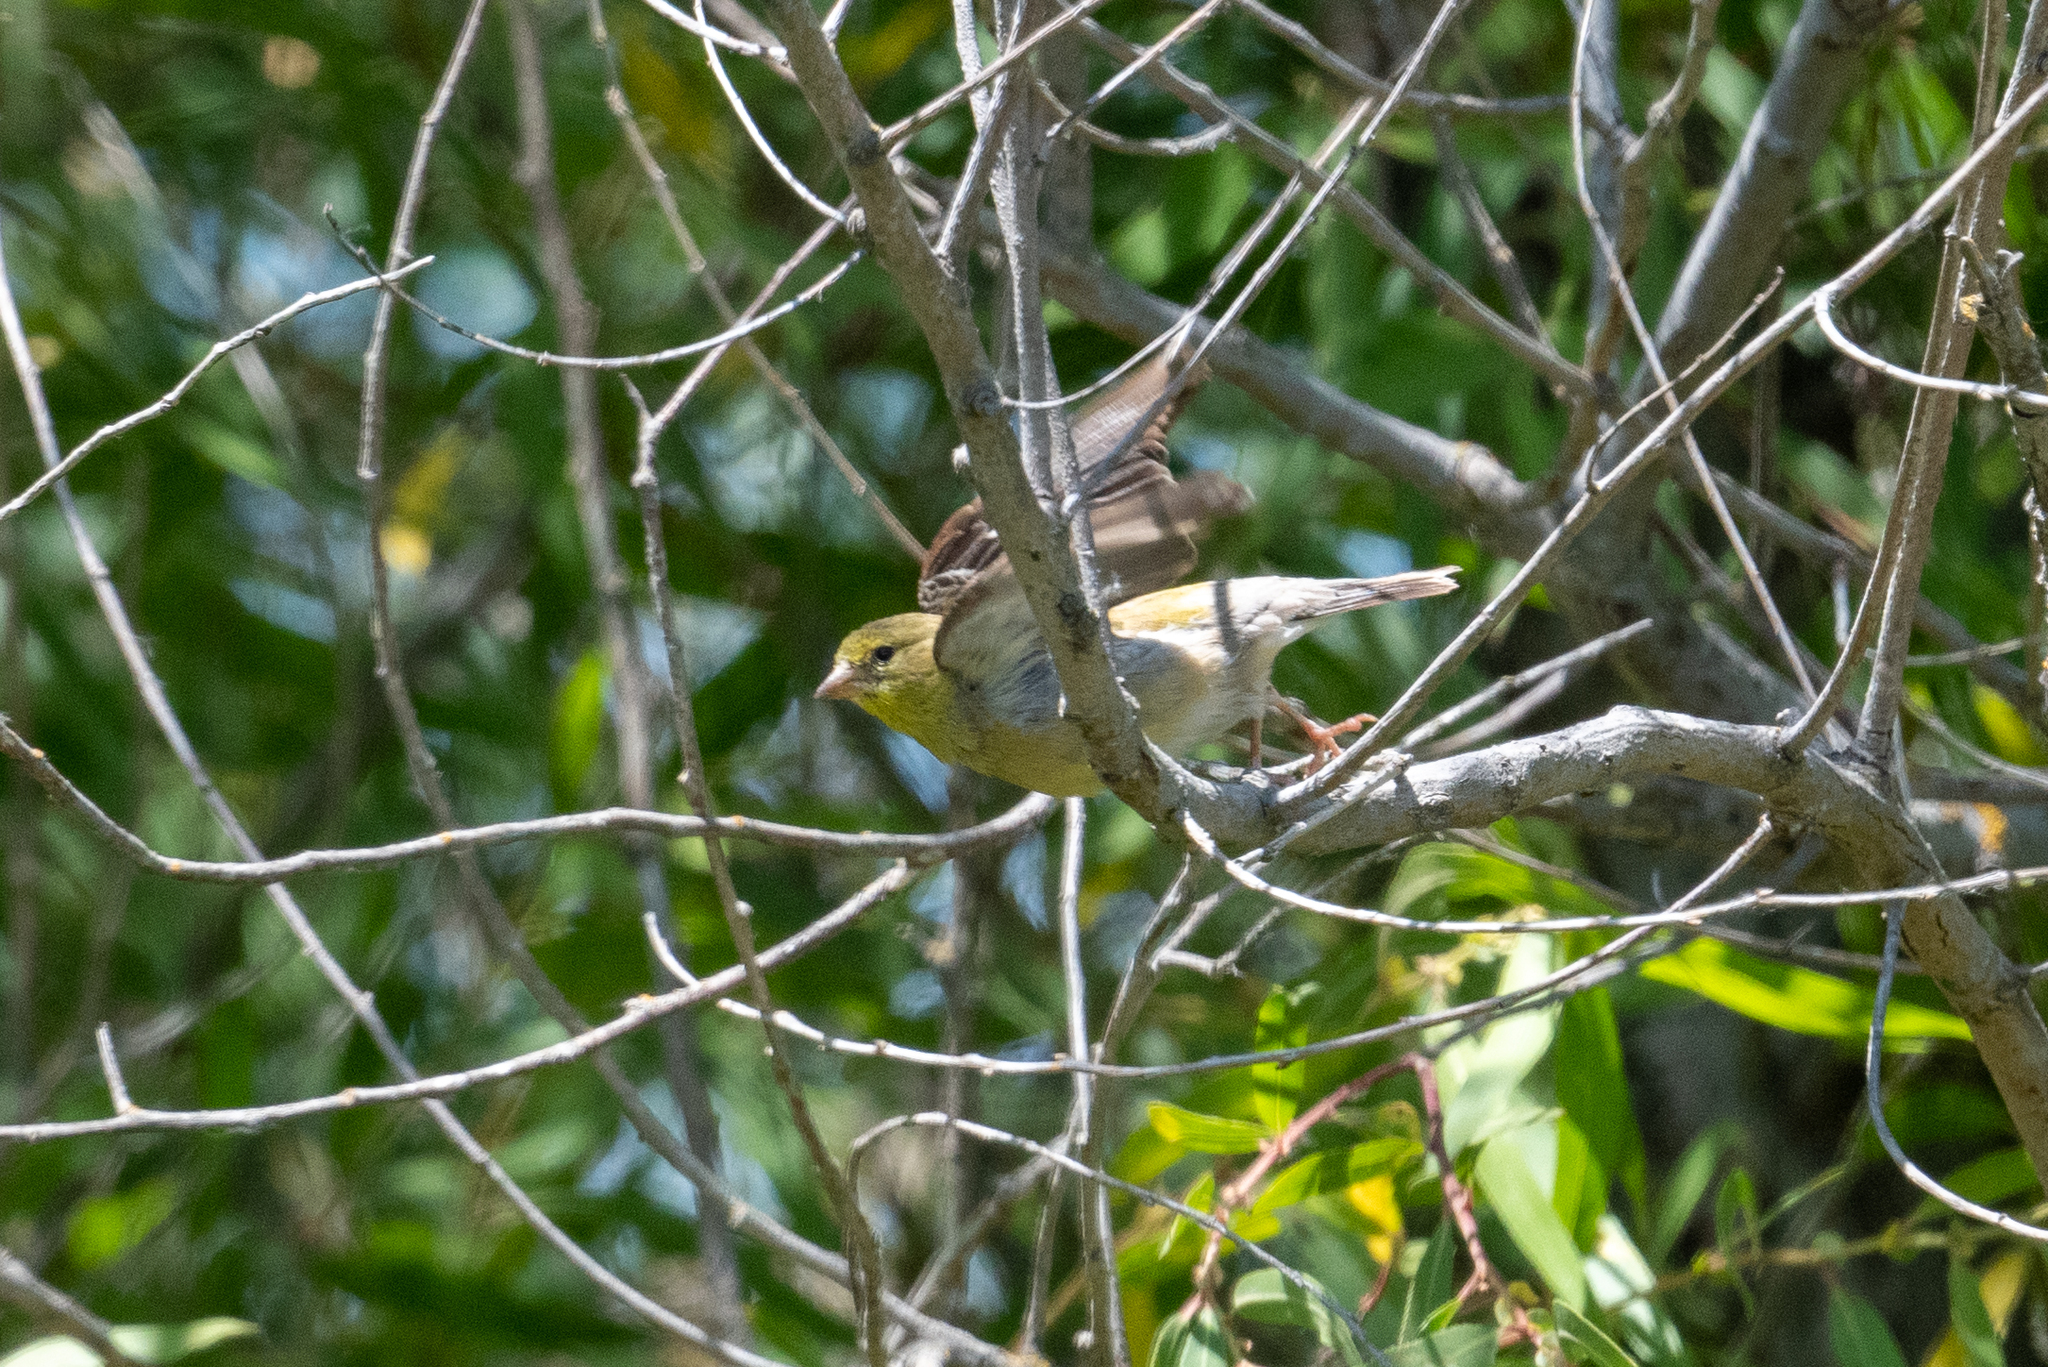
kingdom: Animalia
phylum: Chordata
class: Aves
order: Passeriformes
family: Fringillidae
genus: Spinus
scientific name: Spinus tristis
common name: American goldfinch
